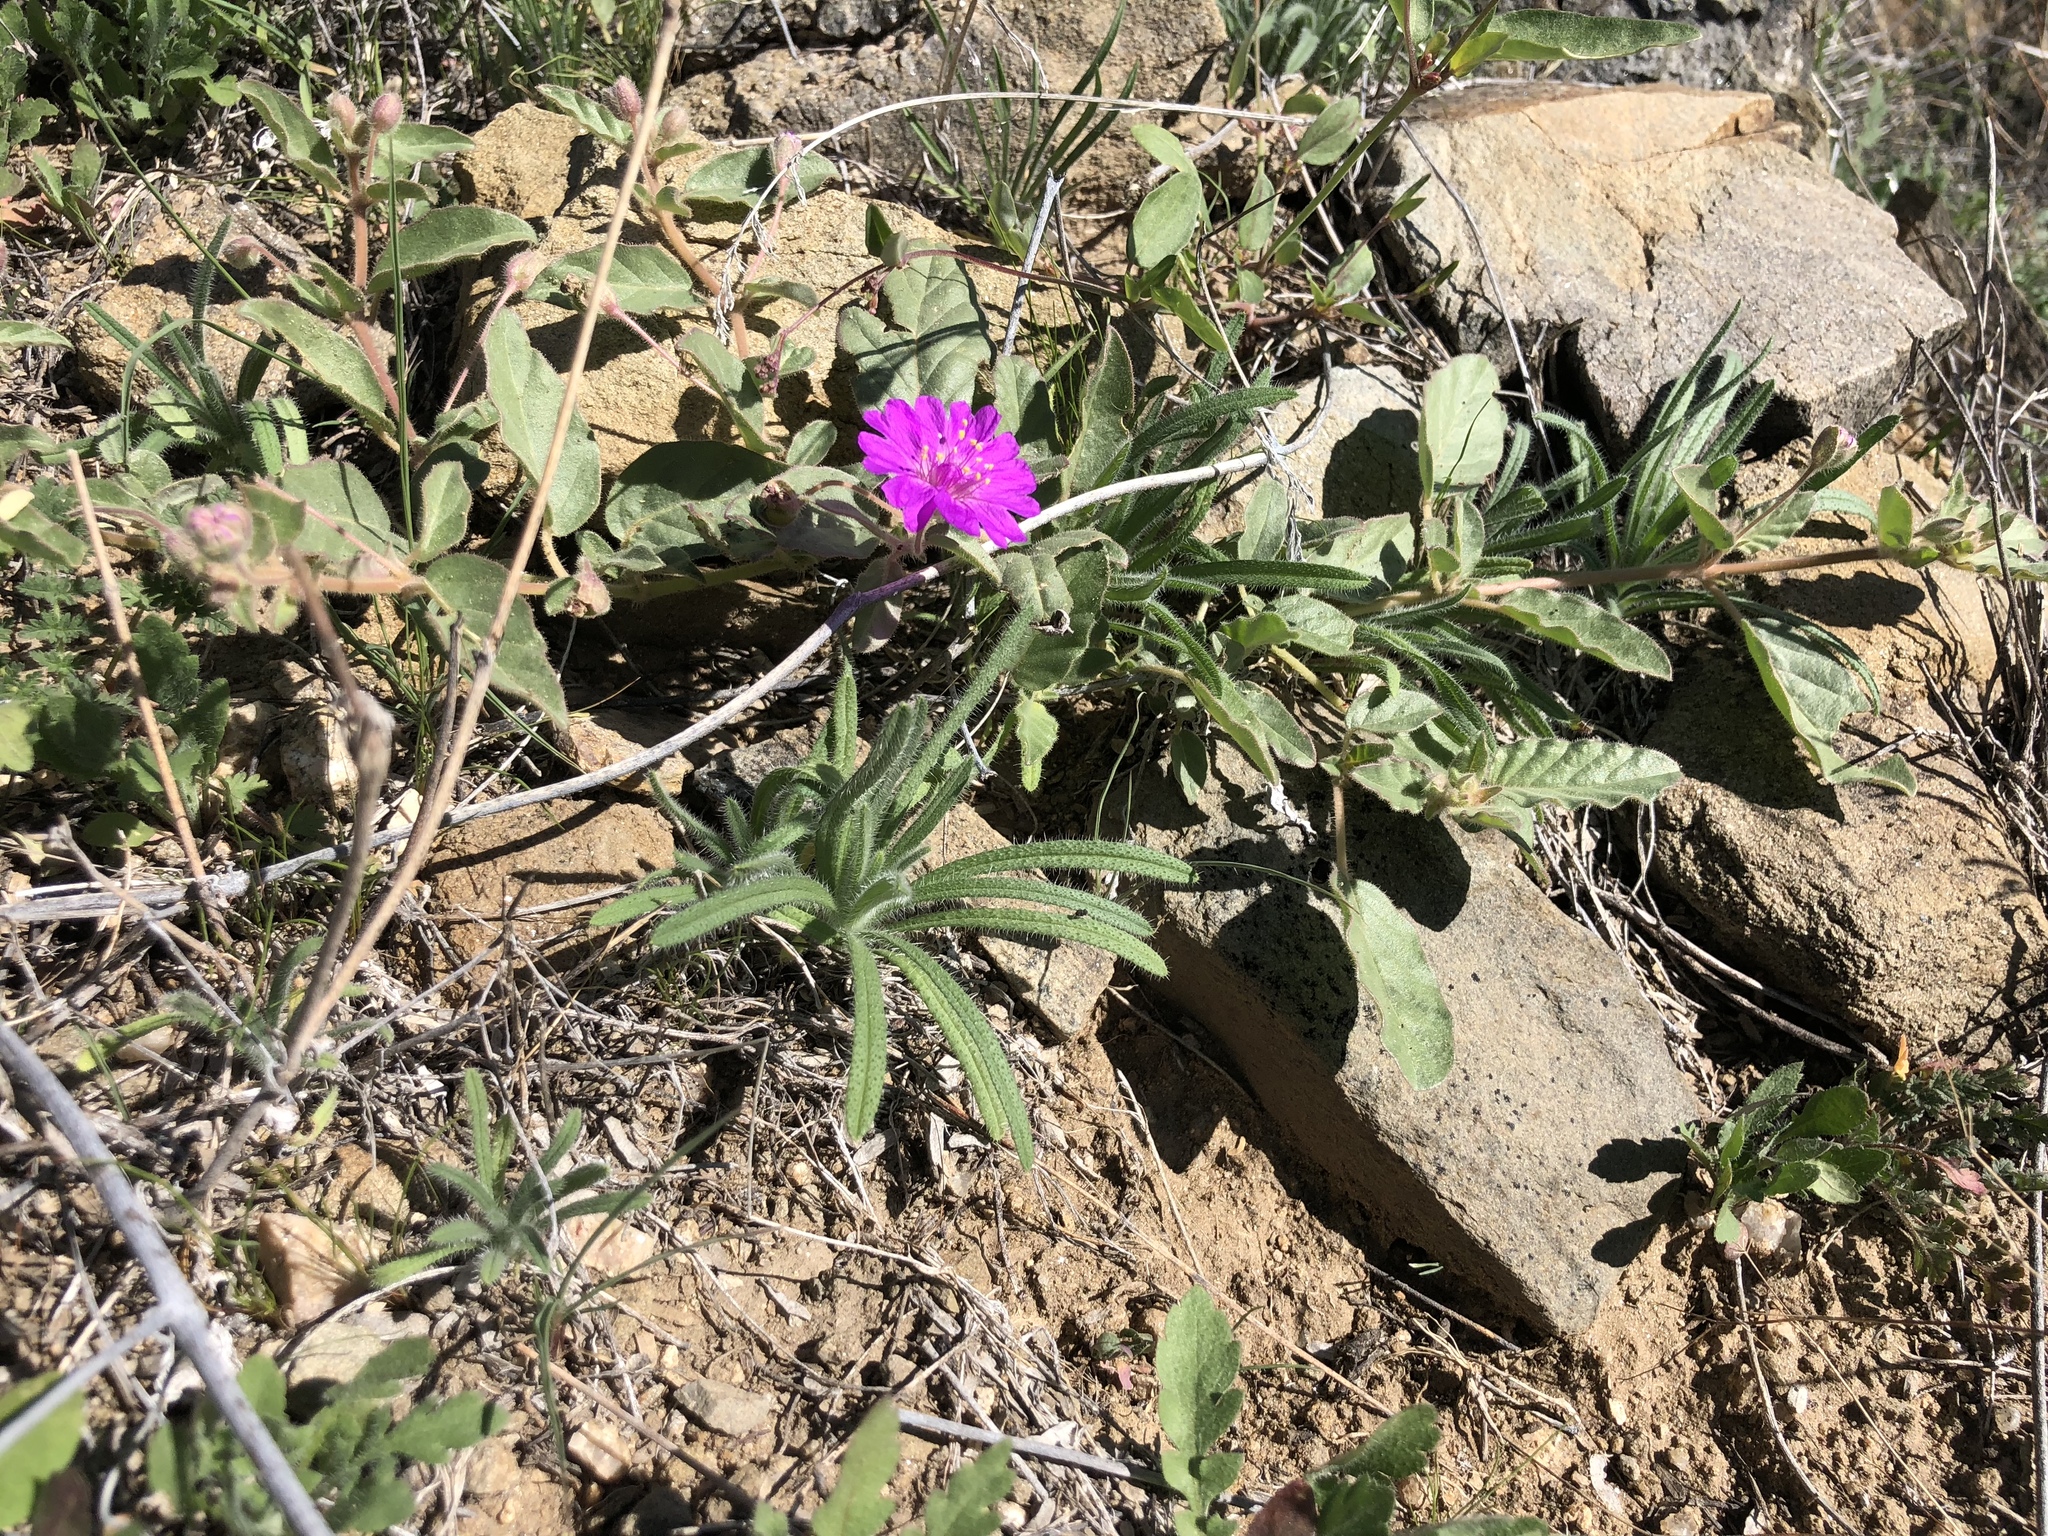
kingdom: Plantae
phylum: Tracheophyta
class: Magnoliopsida
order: Caryophyllales
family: Nyctaginaceae
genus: Allionia
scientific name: Allionia incarnata
